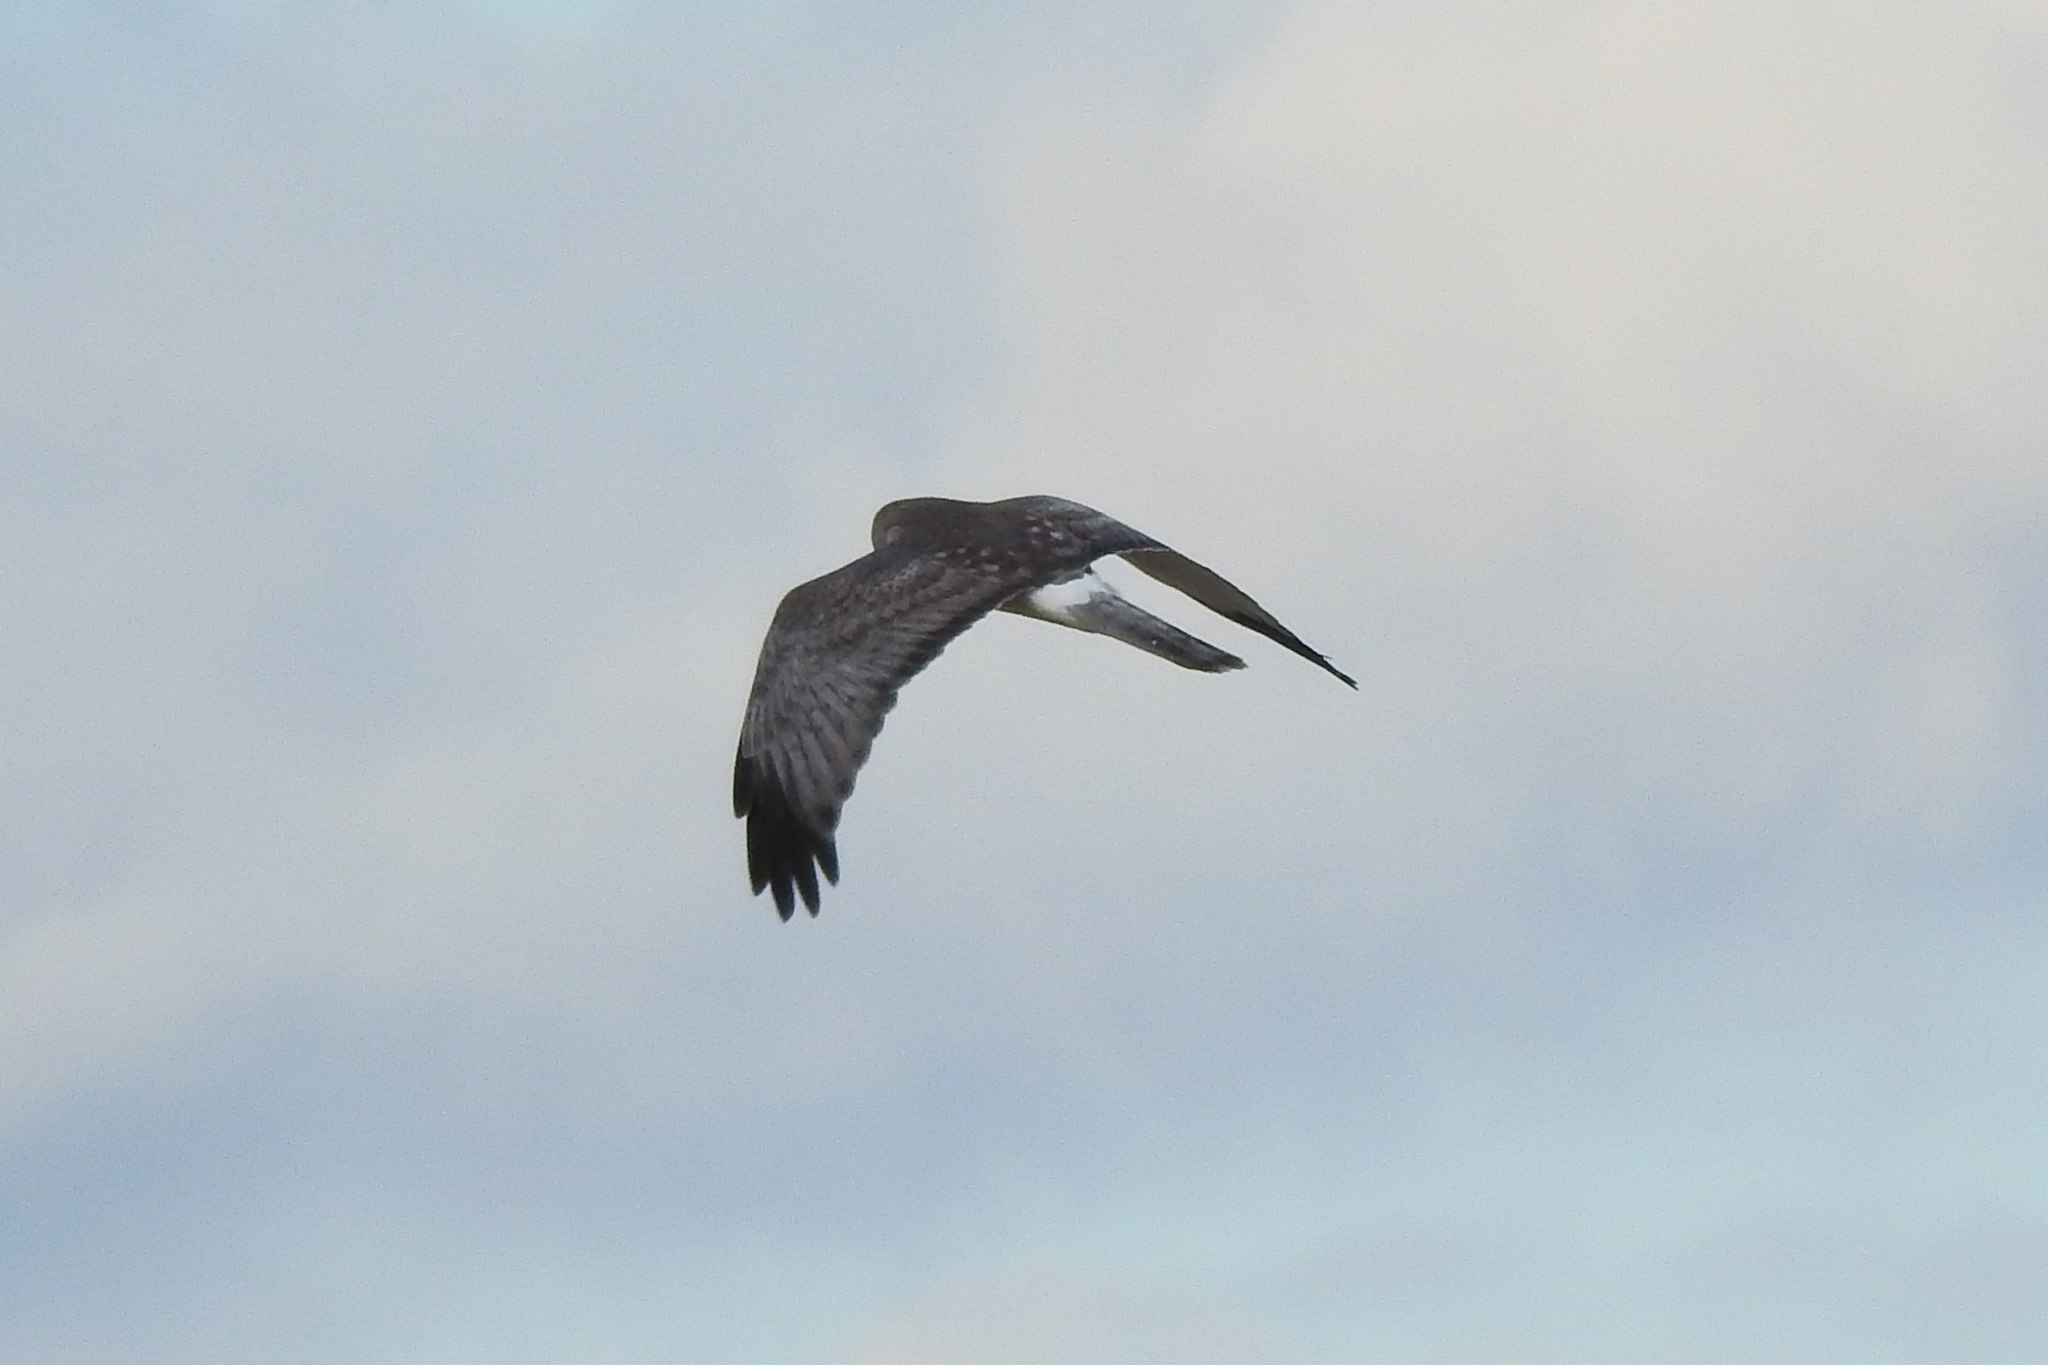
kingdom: Animalia
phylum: Chordata
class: Aves
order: Accipitriformes
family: Accipitridae
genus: Circus
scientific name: Circus cyaneus
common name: Hen harrier
